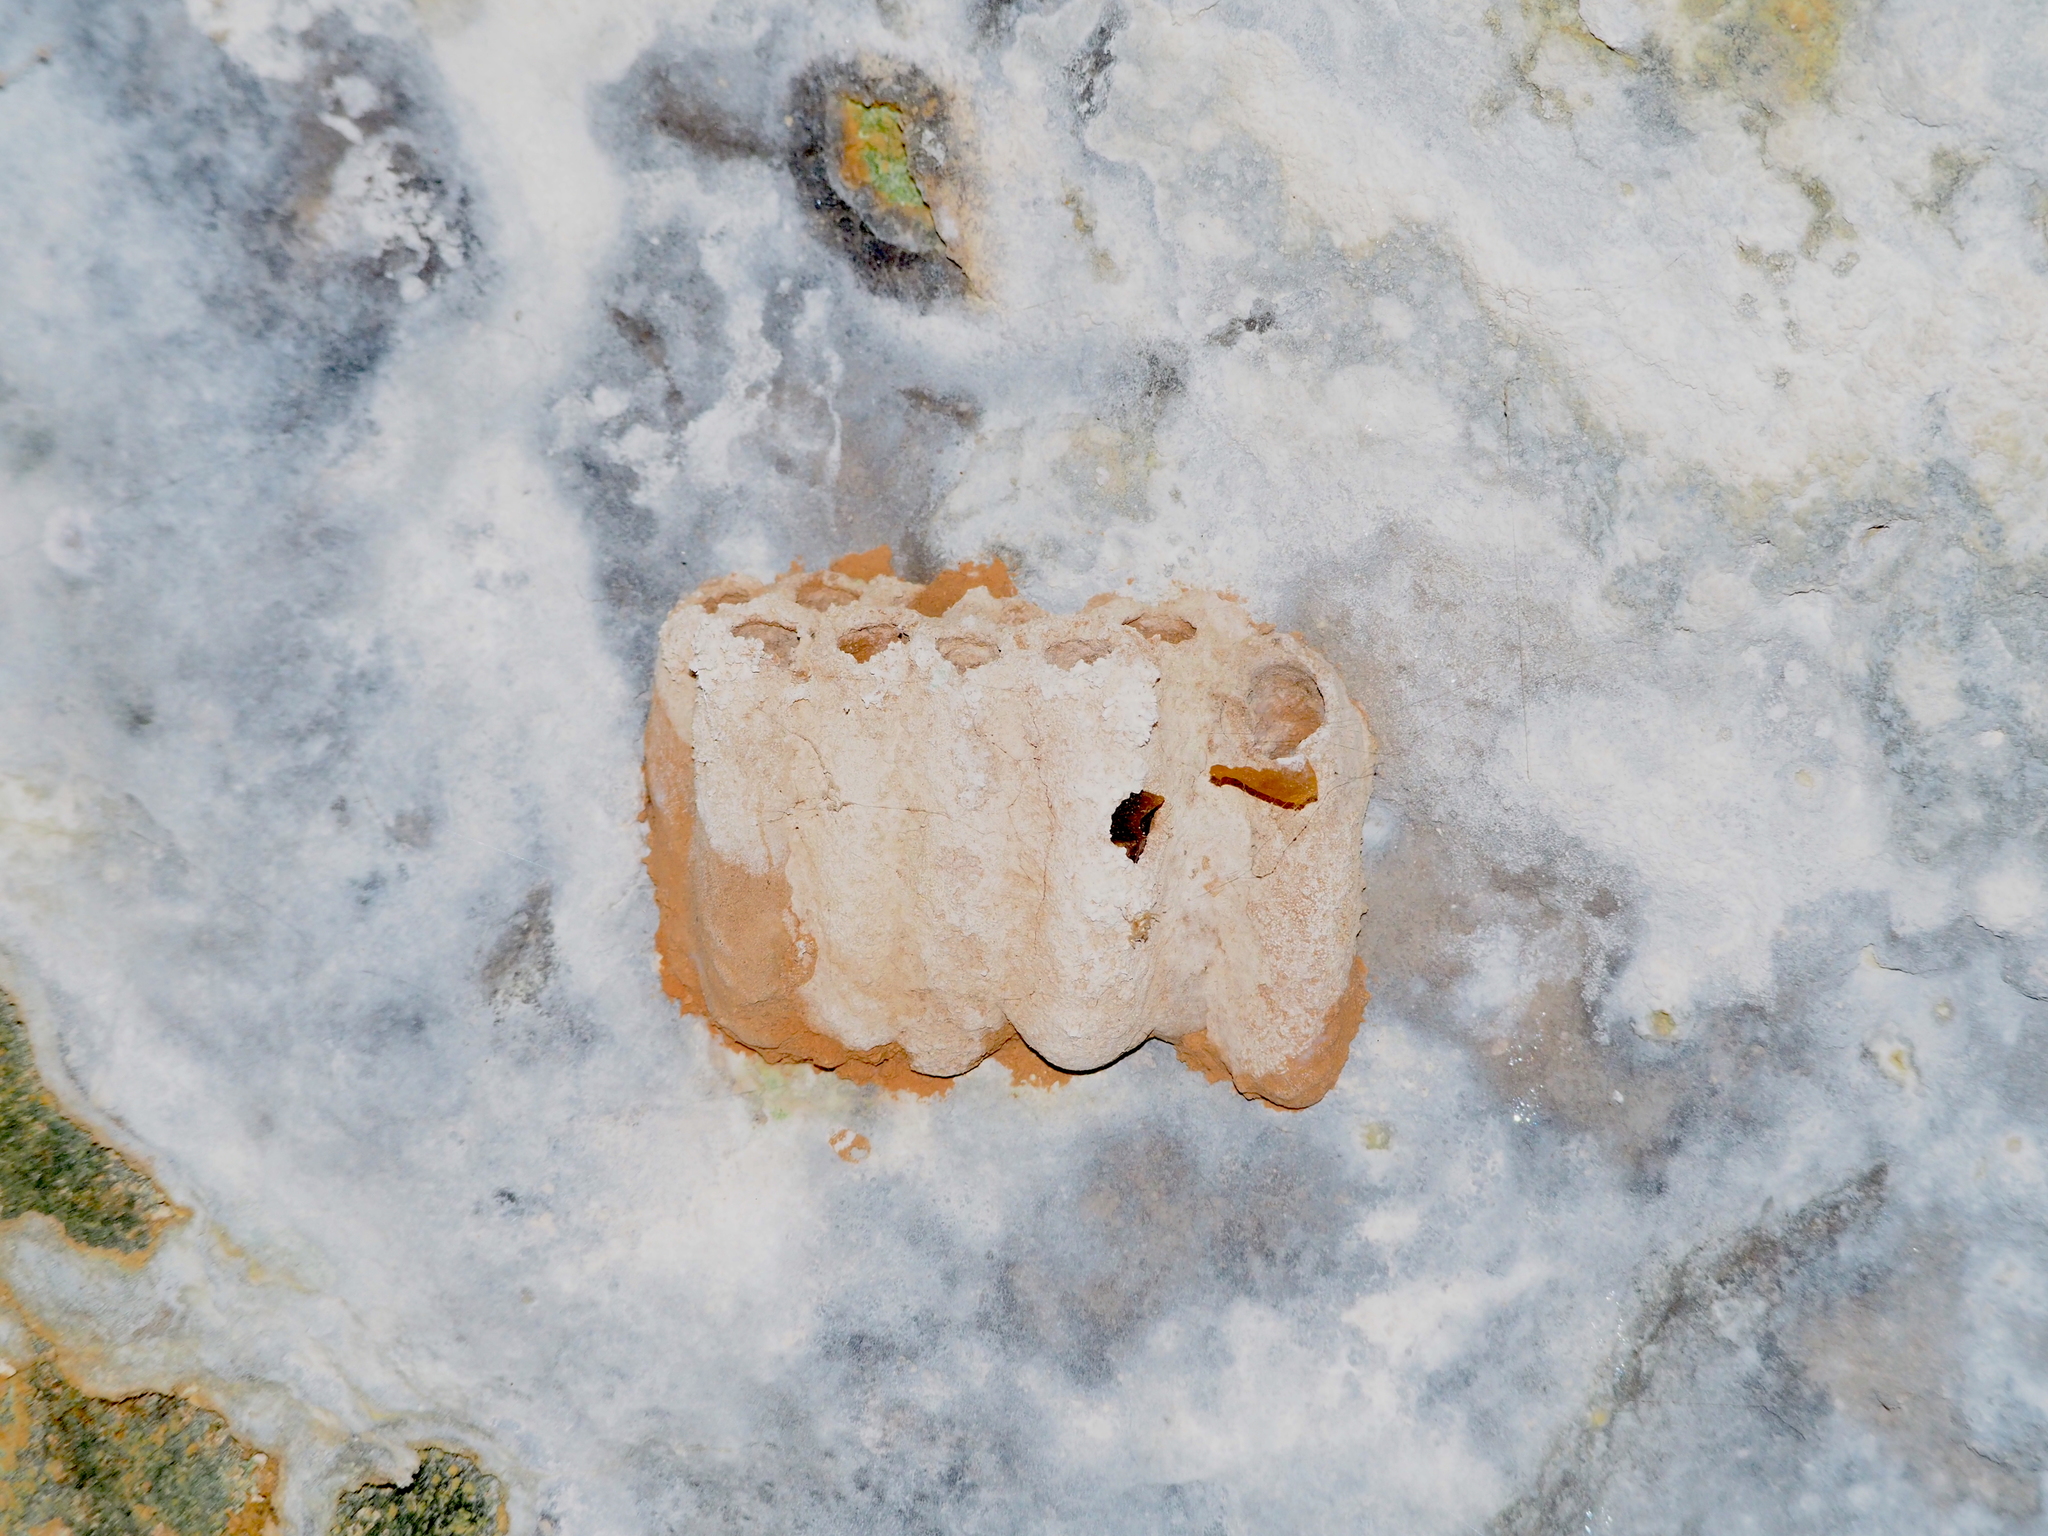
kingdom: Animalia
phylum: Arthropoda
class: Insecta
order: Hymenoptera
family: Sphecidae
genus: Sceliphron
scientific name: Sceliphron
